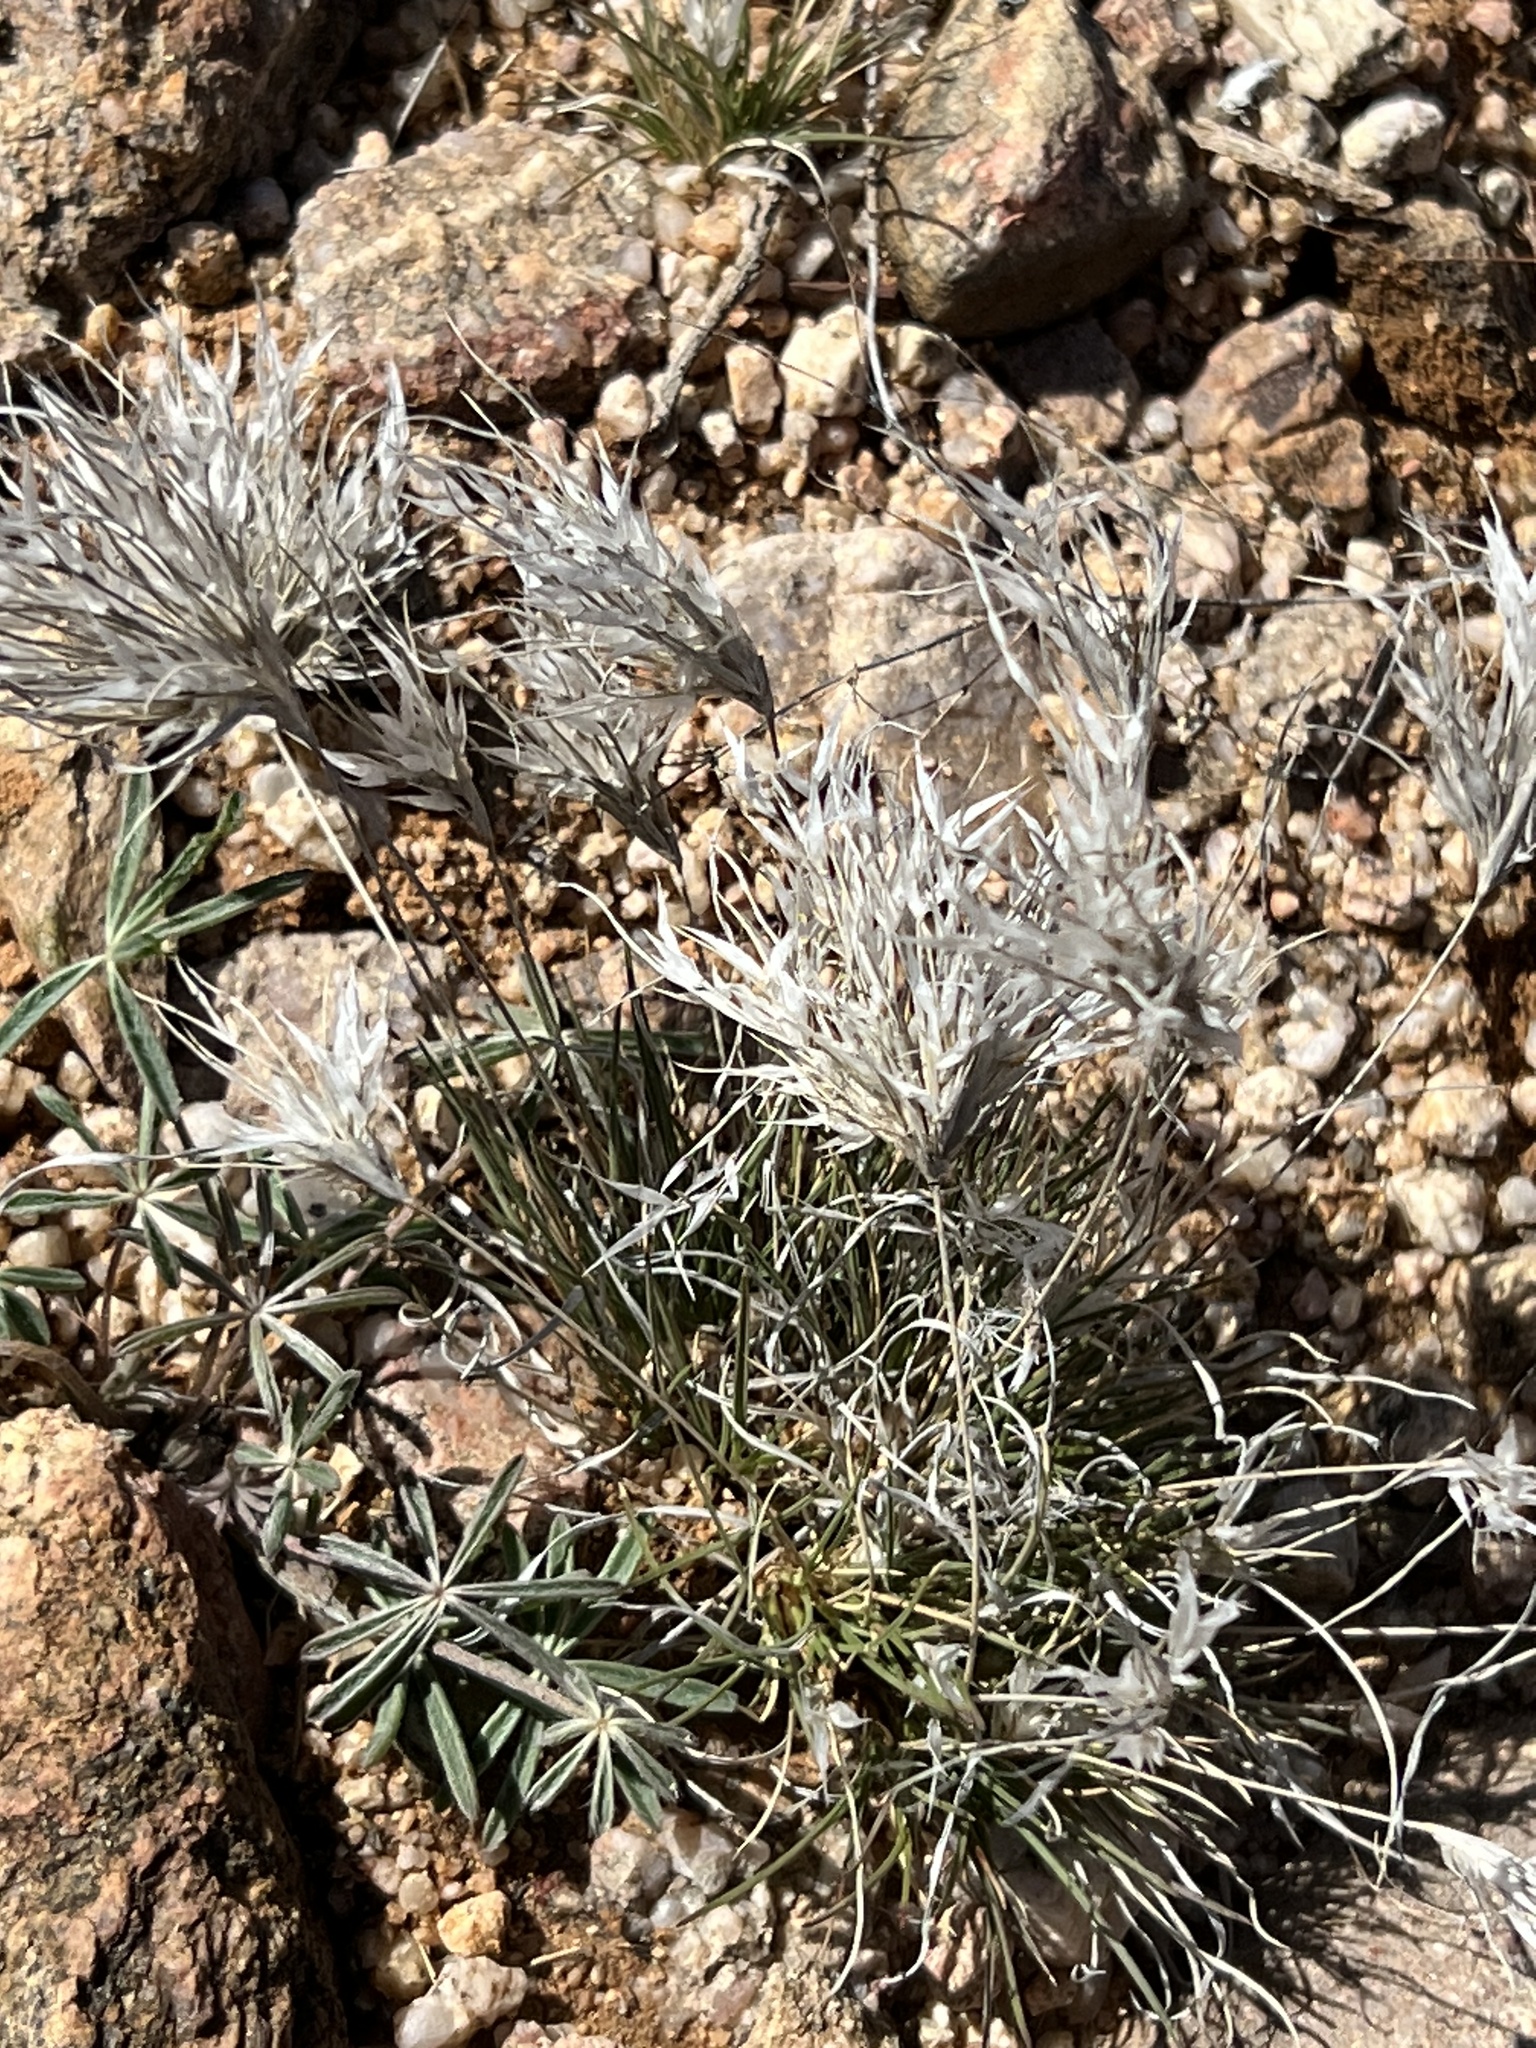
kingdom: Plantae
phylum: Tracheophyta
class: Liliopsida
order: Poales
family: Poaceae
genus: Dasyochloa
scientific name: Dasyochloa pulchella
